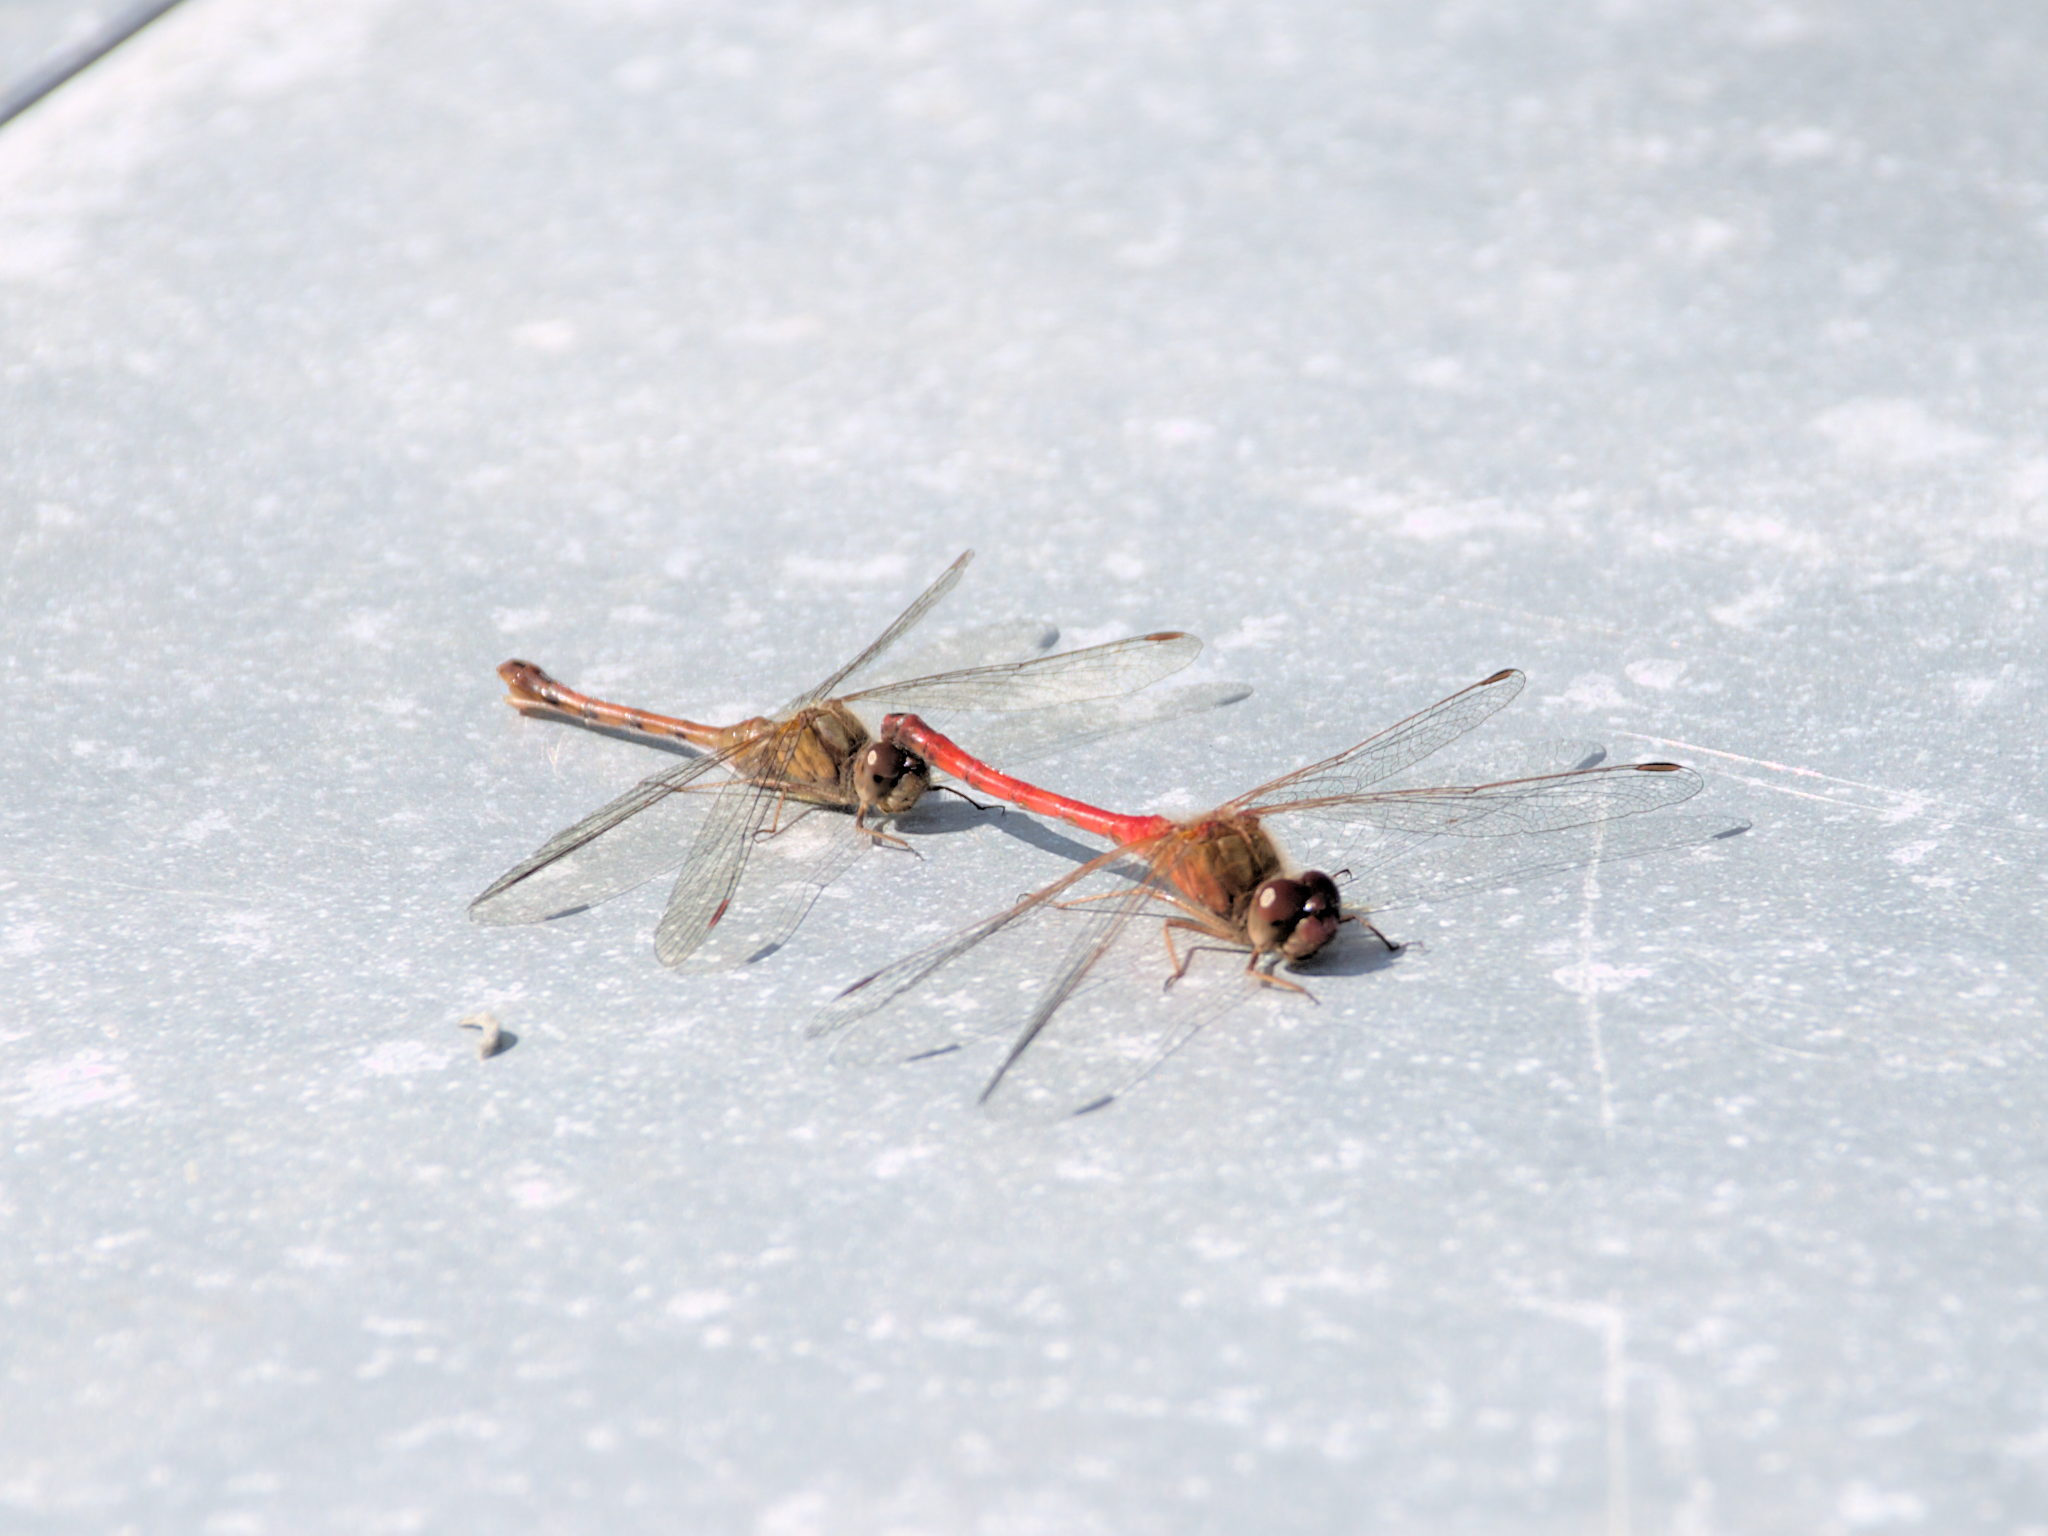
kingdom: Animalia
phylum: Arthropoda
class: Insecta
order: Odonata
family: Libellulidae
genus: Sympetrum
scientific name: Sympetrum vicinum
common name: Autumn meadowhawk
